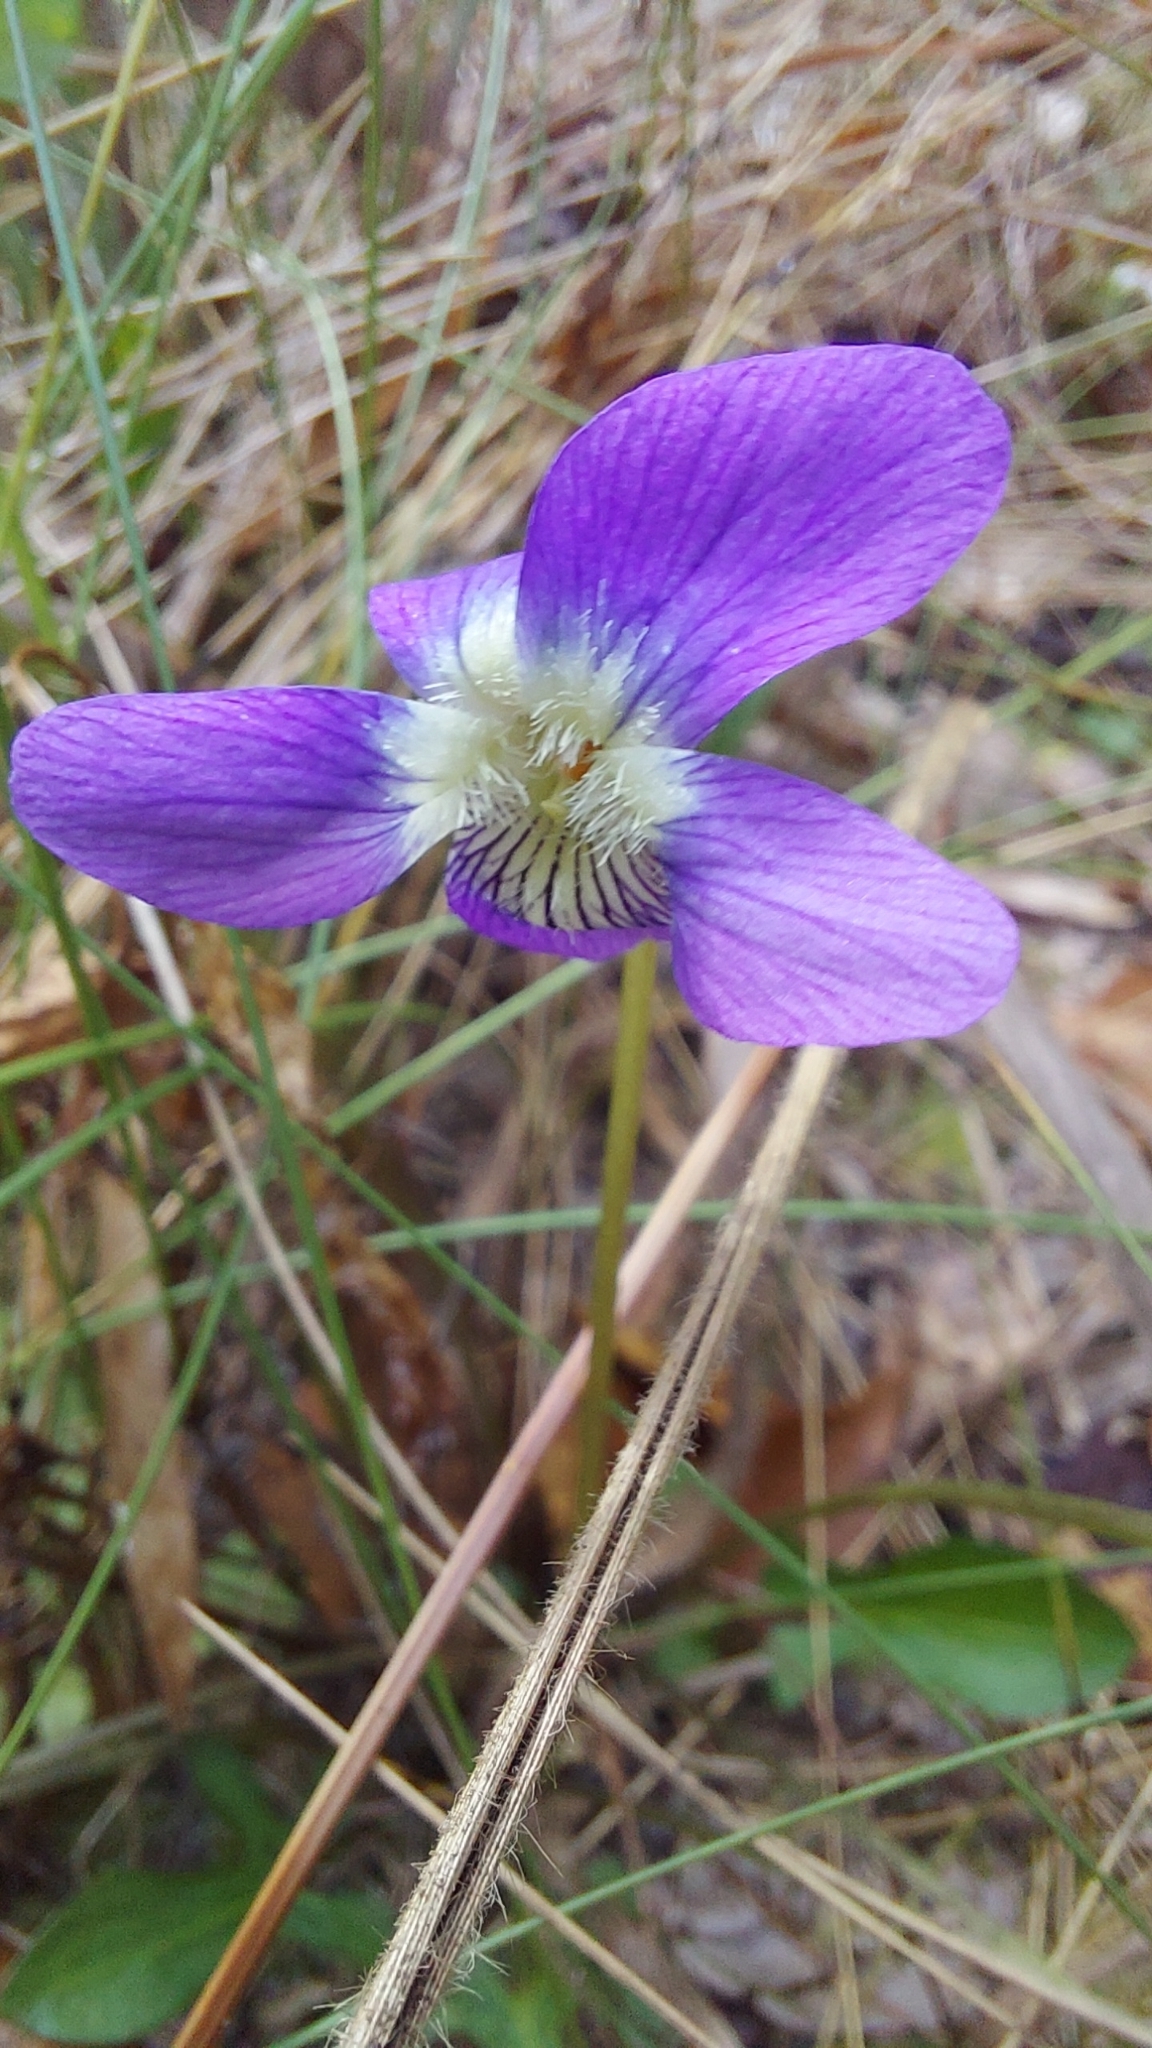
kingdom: Plantae
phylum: Tracheophyta
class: Magnoliopsida
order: Malpighiales
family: Violaceae
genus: Viola
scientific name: Viola septemloba
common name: Southern coast violet
